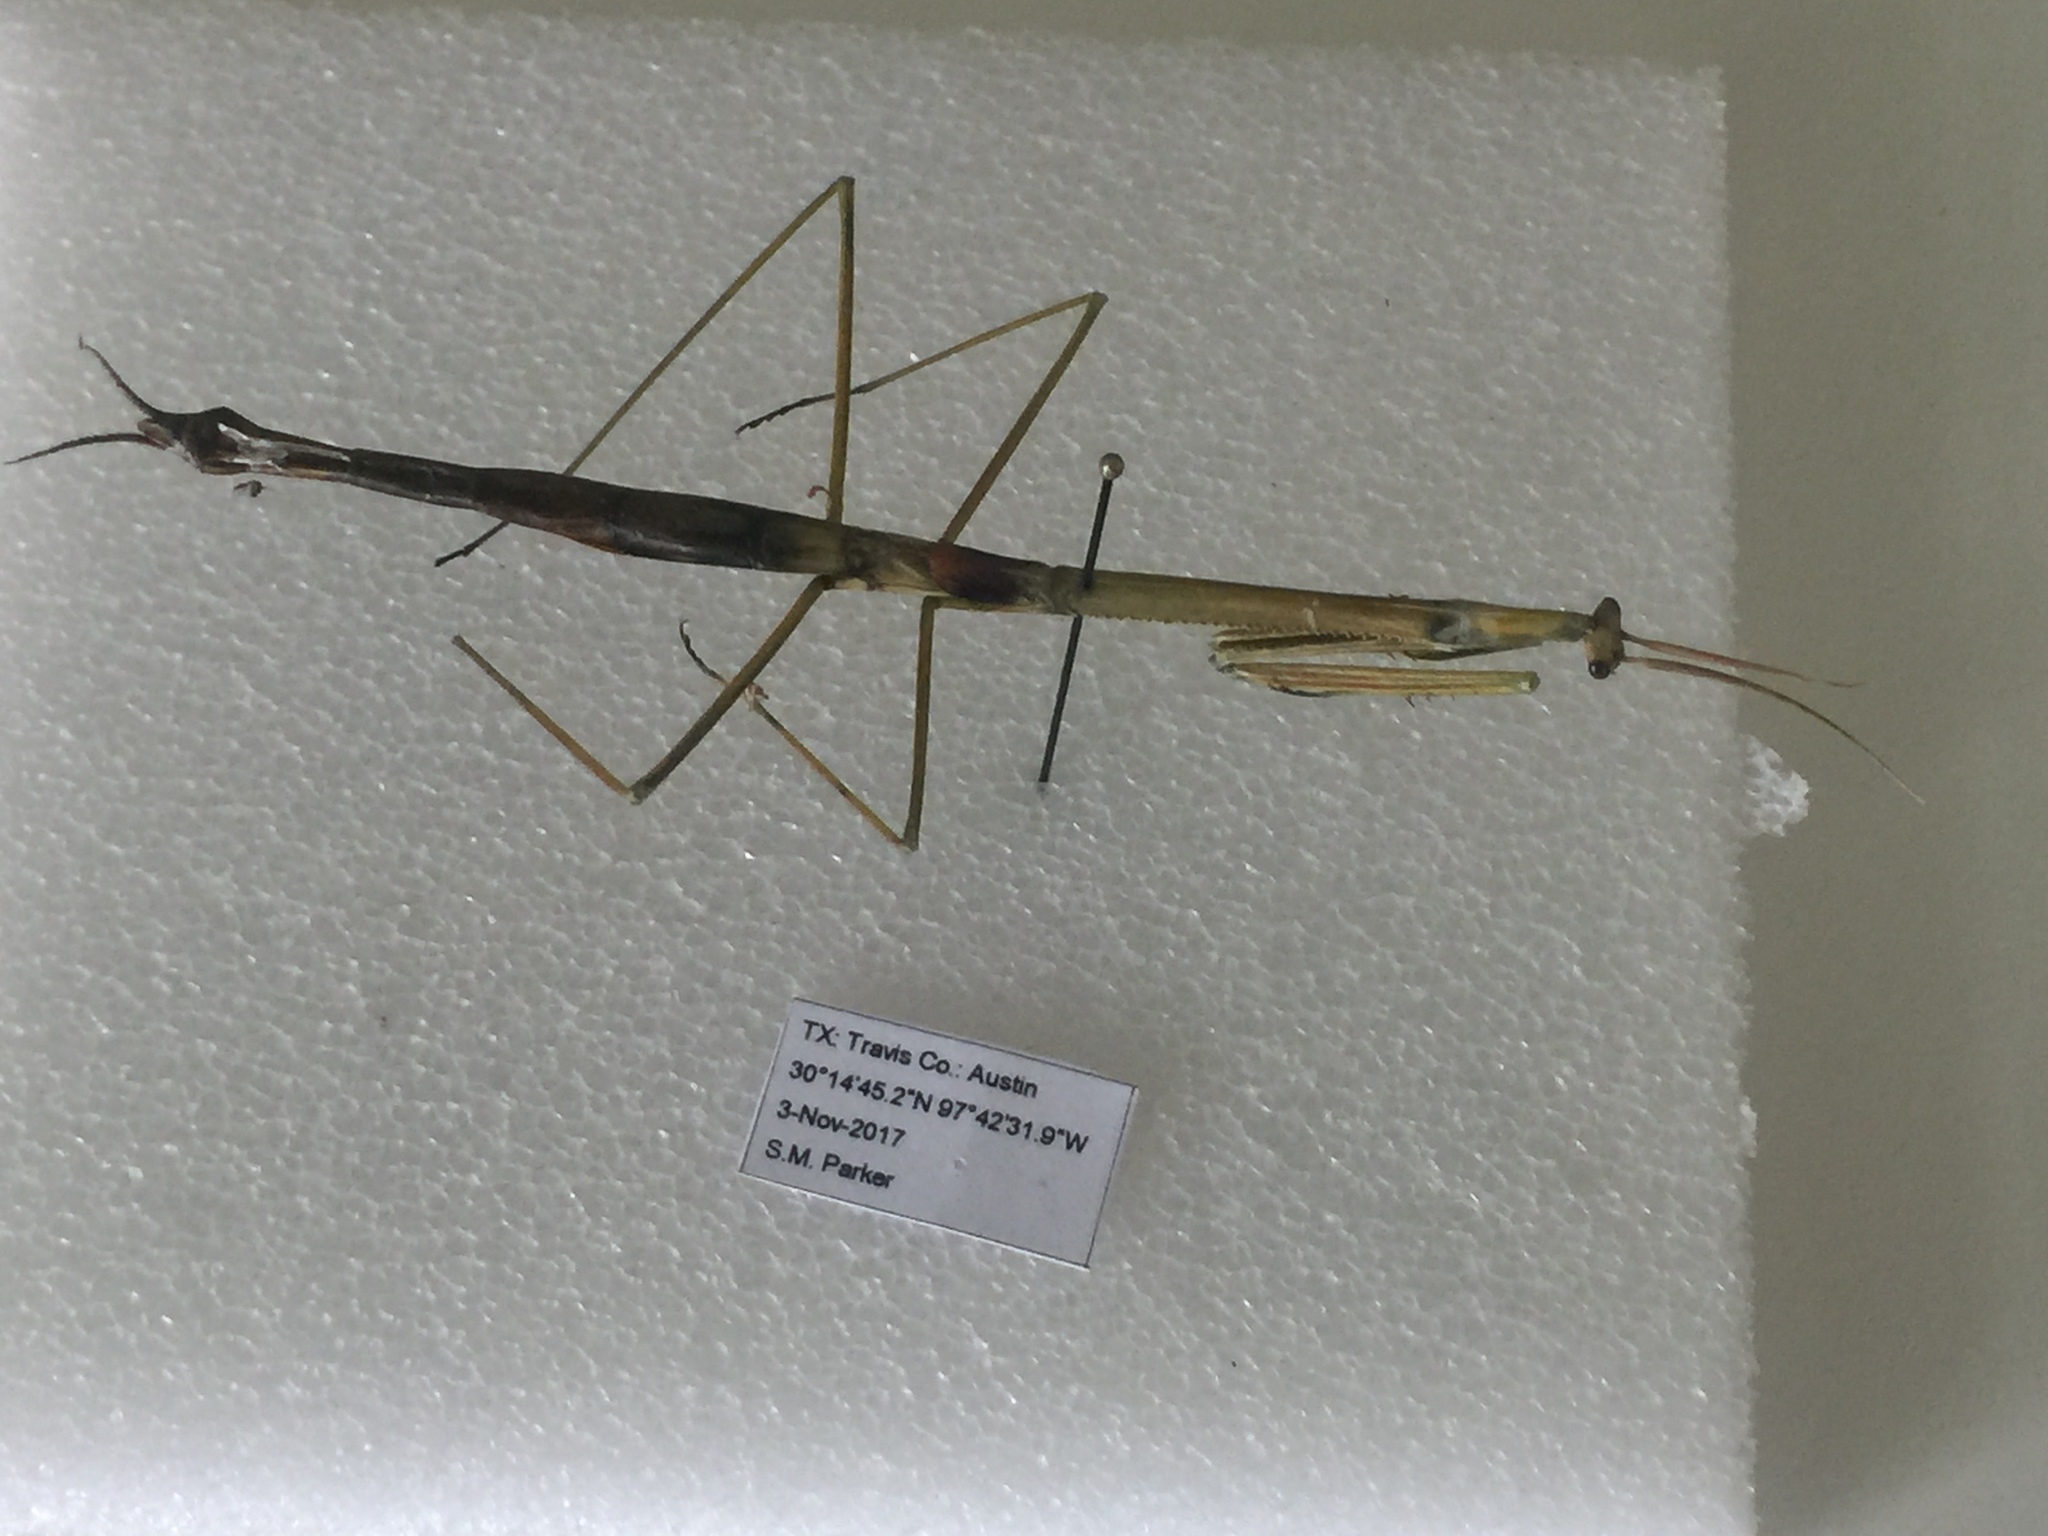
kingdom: Animalia
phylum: Arthropoda
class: Insecta
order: Mantodea
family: Coptopterygidae
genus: Brunneria
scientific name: Brunneria borealis
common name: Mantis
